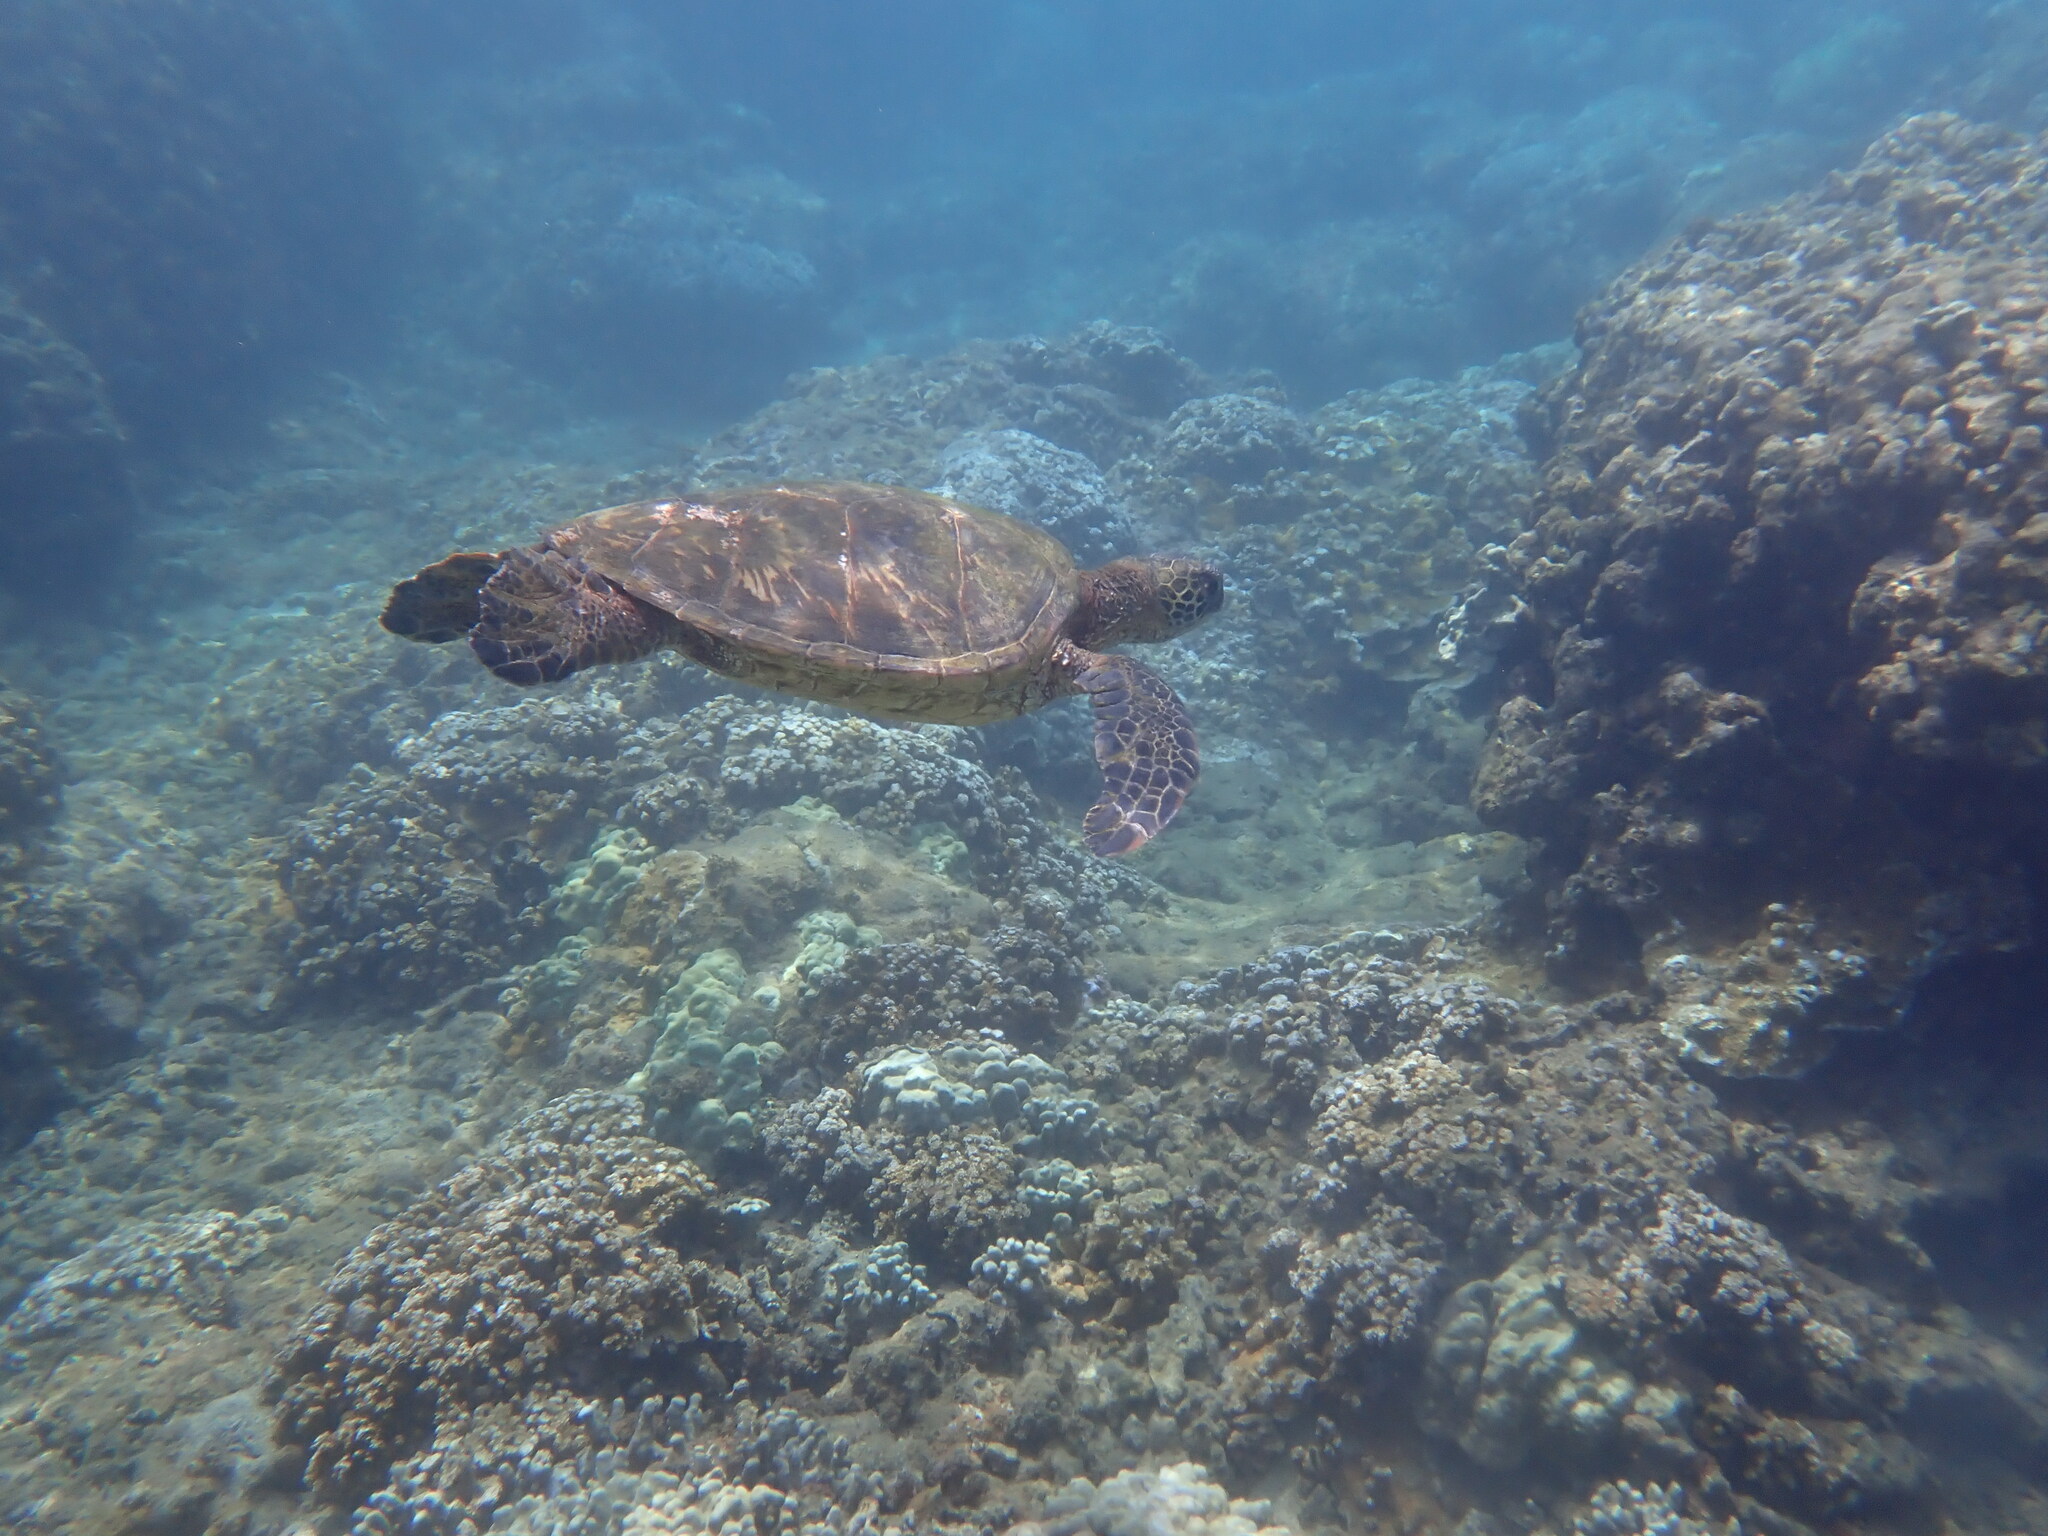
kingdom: Animalia
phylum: Chordata
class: Testudines
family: Cheloniidae
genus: Chelonia
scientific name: Chelonia mydas
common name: Green turtle
